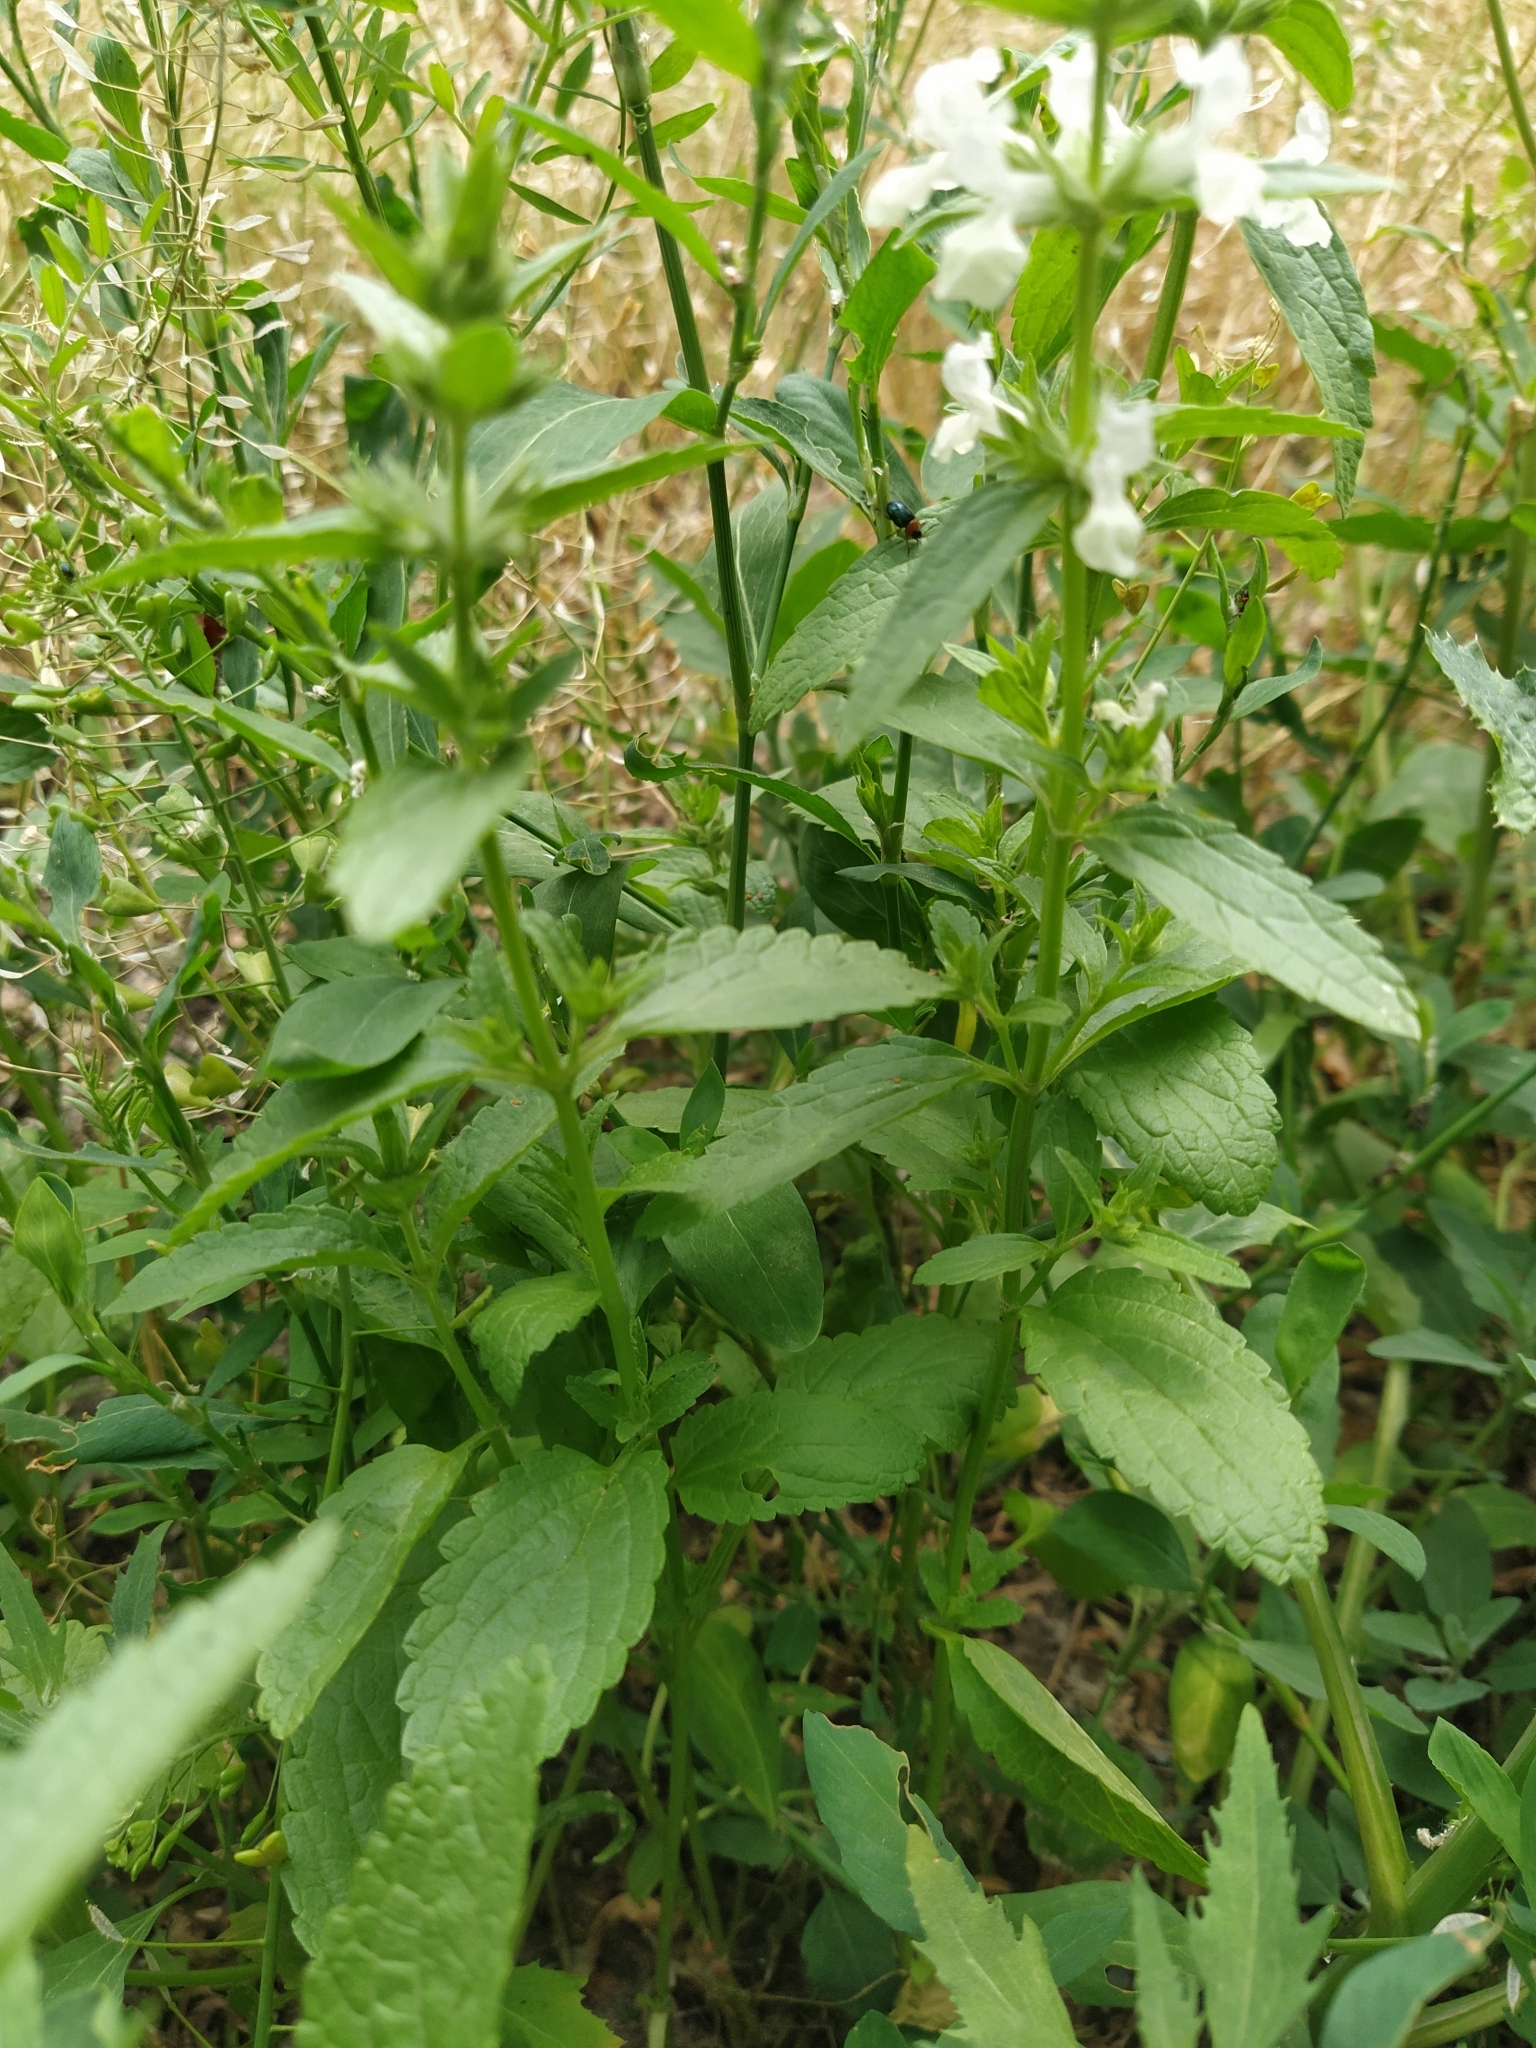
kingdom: Plantae
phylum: Tracheophyta
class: Magnoliopsida
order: Lamiales
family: Lamiaceae
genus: Stachys
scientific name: Stachys annua
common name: Annual yellow-woundwort
